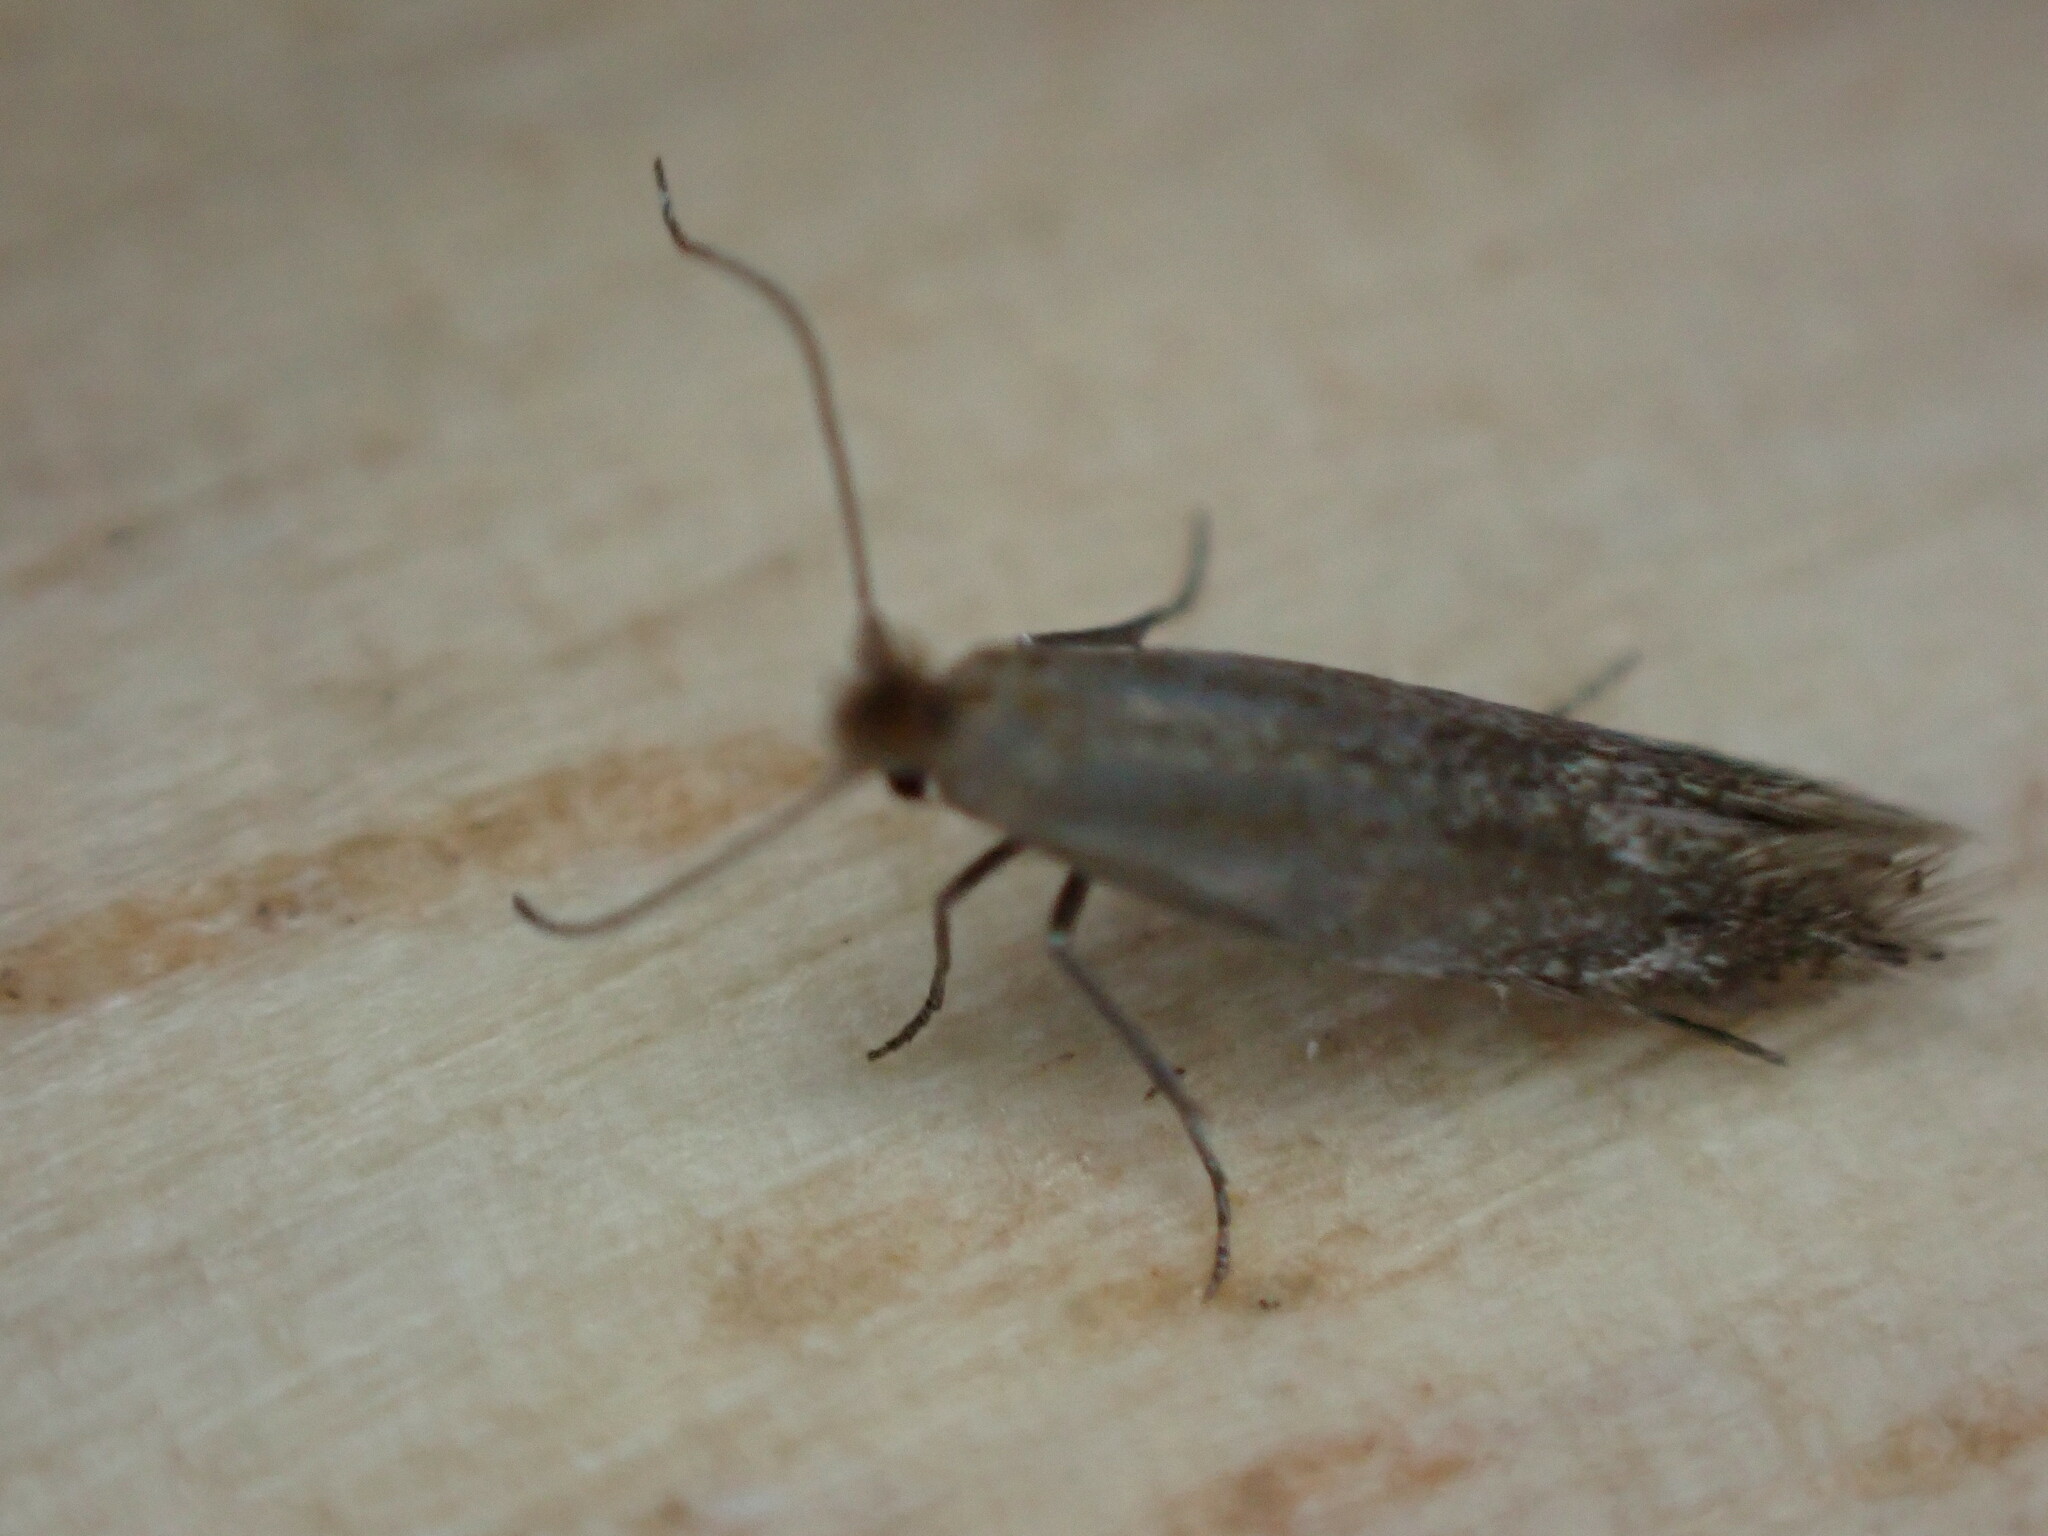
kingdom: Animalia
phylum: Arthropoda
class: Insecta
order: Lepidoptera
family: Bucculatricidae
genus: Bucculatrix
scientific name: Bucculatrix maritima
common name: Saltern bent-wing
